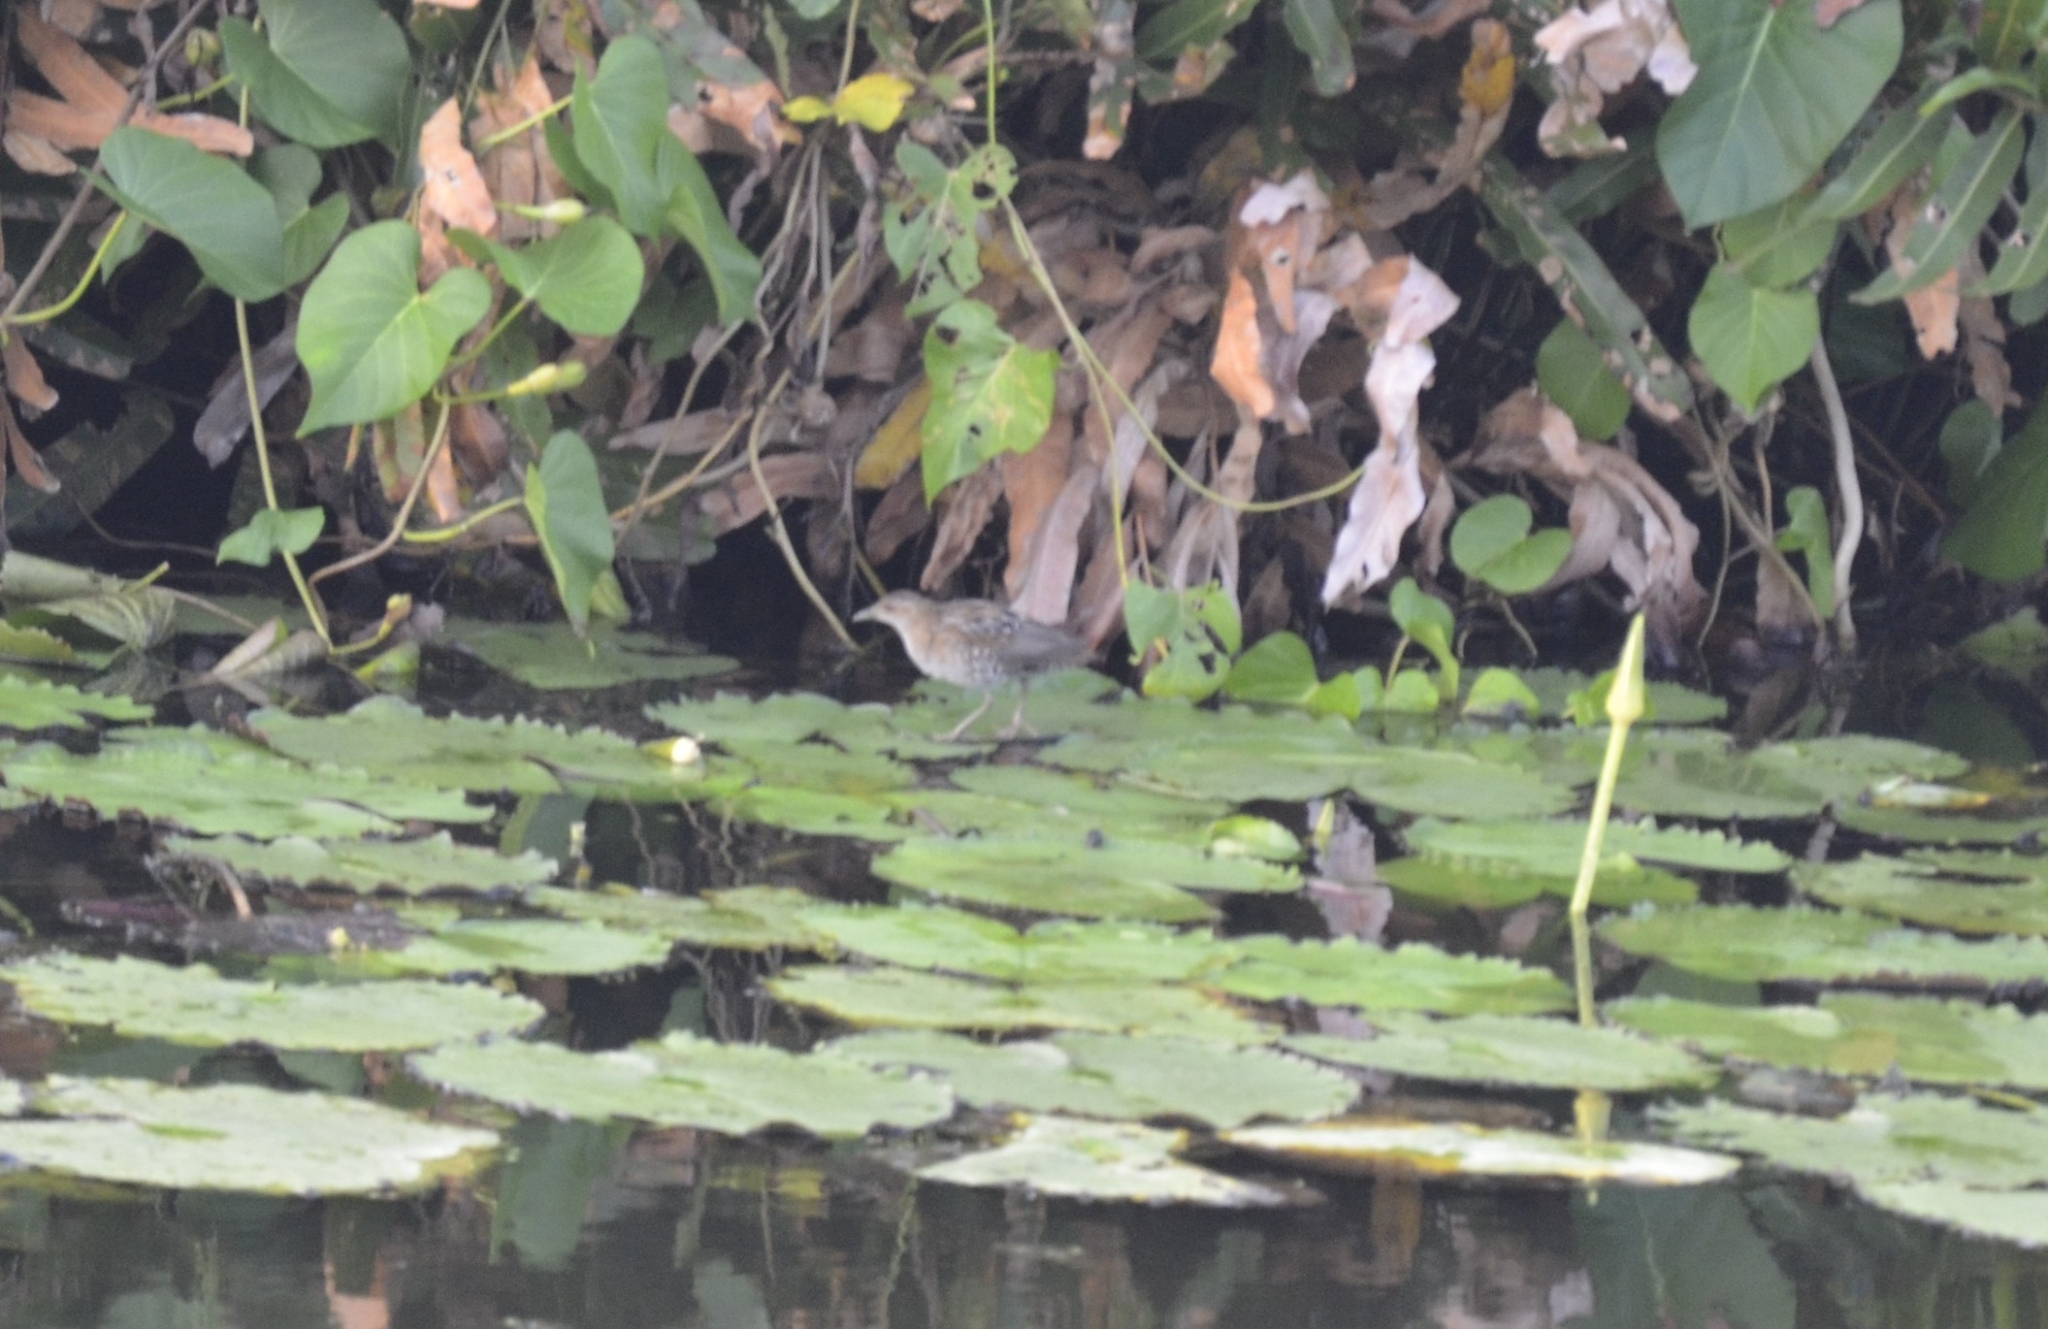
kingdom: Animalia
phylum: Chordata
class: Aves
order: Gruiformes
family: Rallidae
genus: Porzana
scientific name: Porzana pusilla
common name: Baillon's crake
